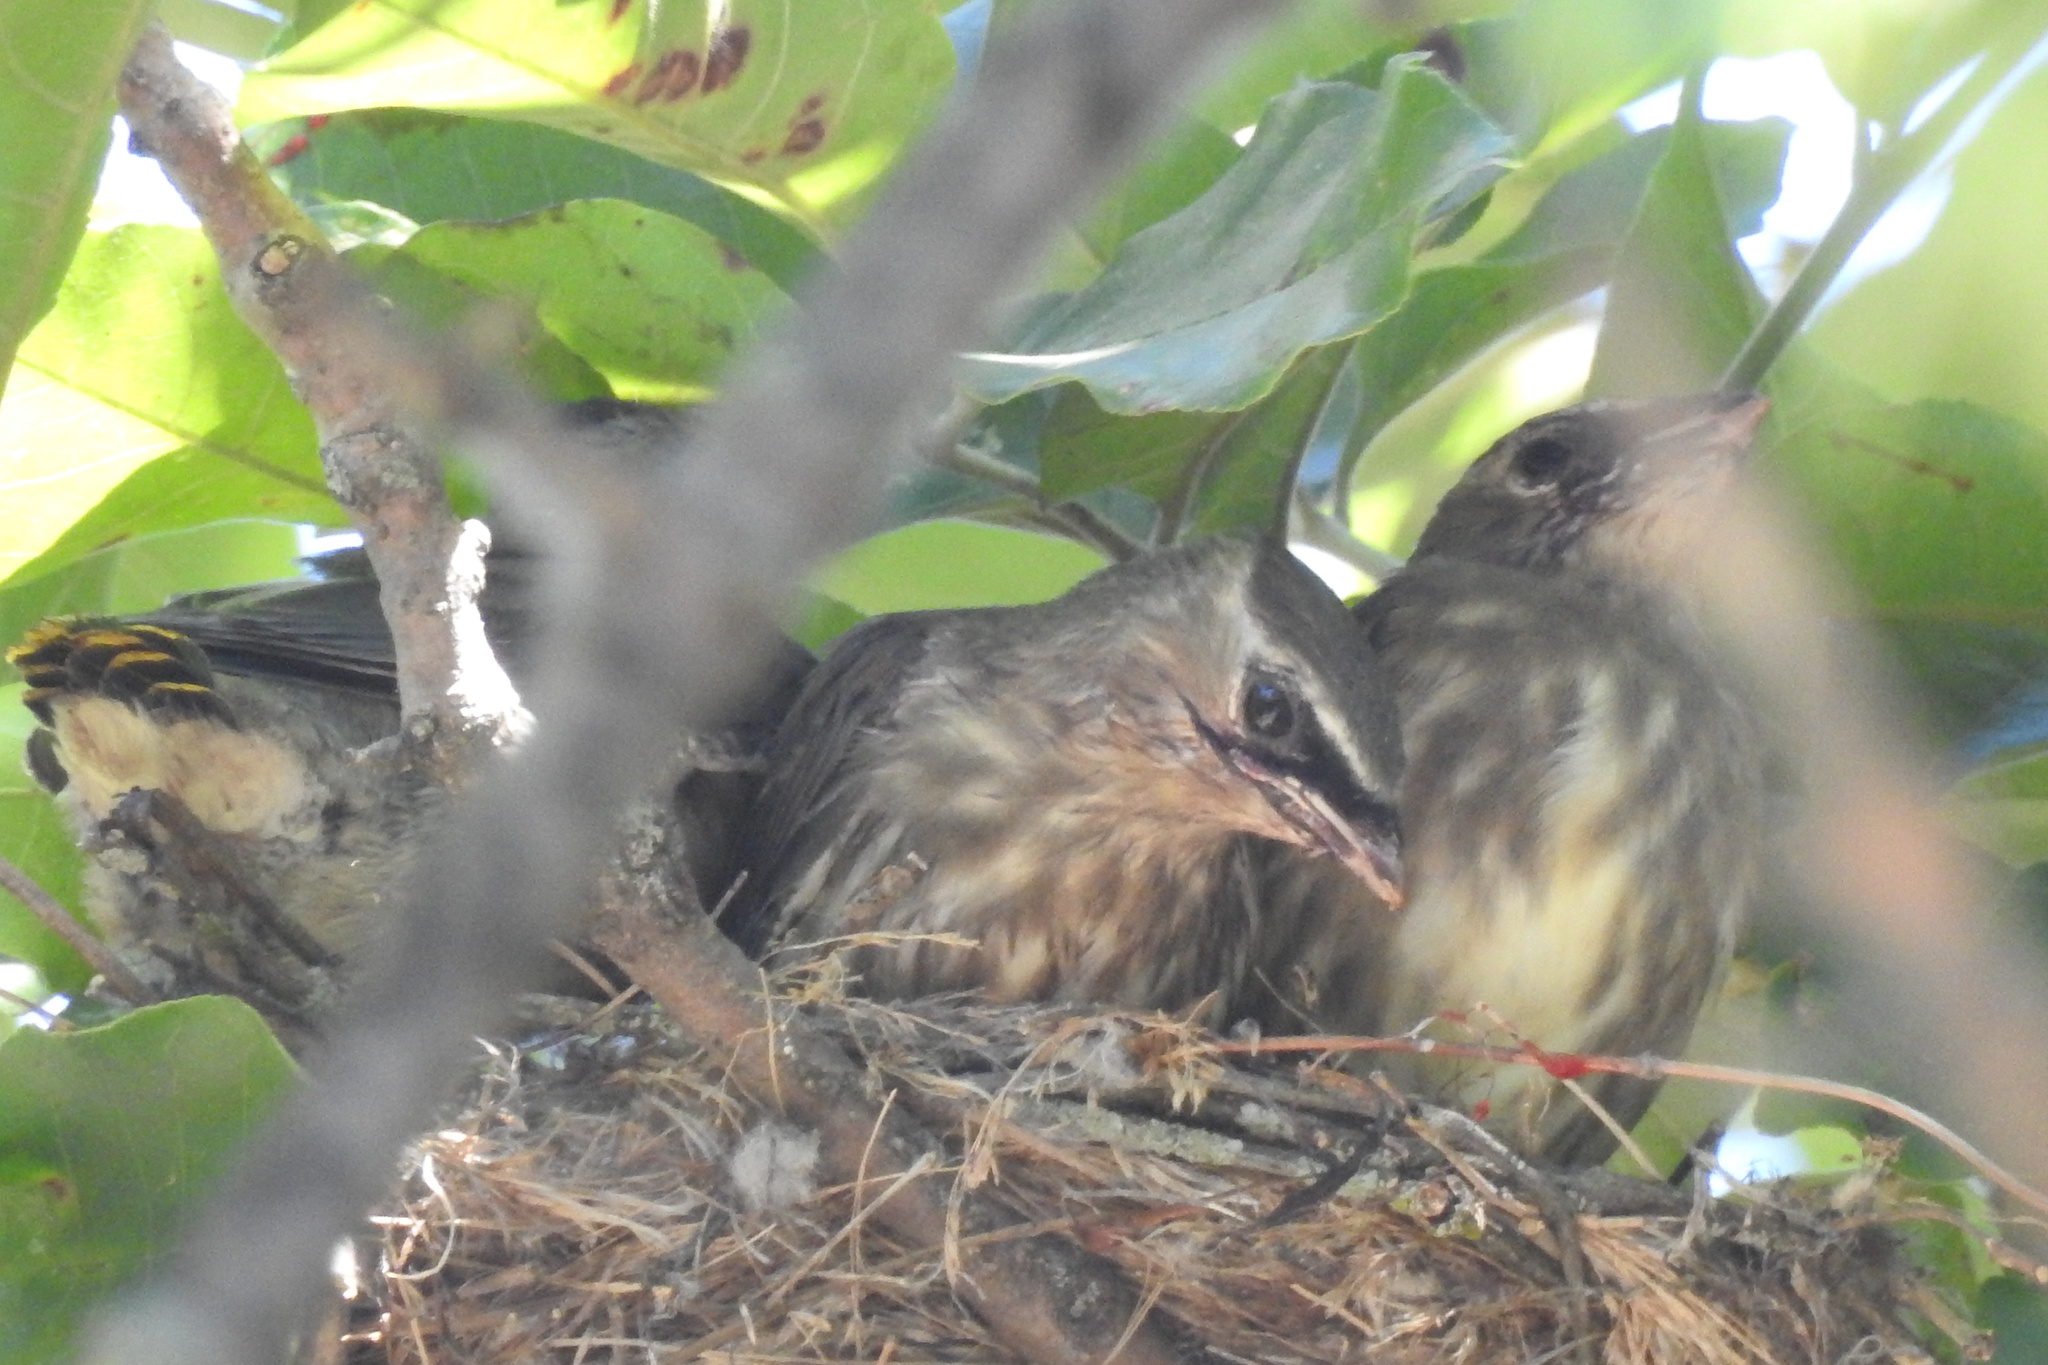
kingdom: Animalia
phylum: Chordata
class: Aves
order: Passeriformes
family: Bombycillidae
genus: Bombycilla
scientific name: Bombycilla cedrorum
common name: Cedar waxwing
